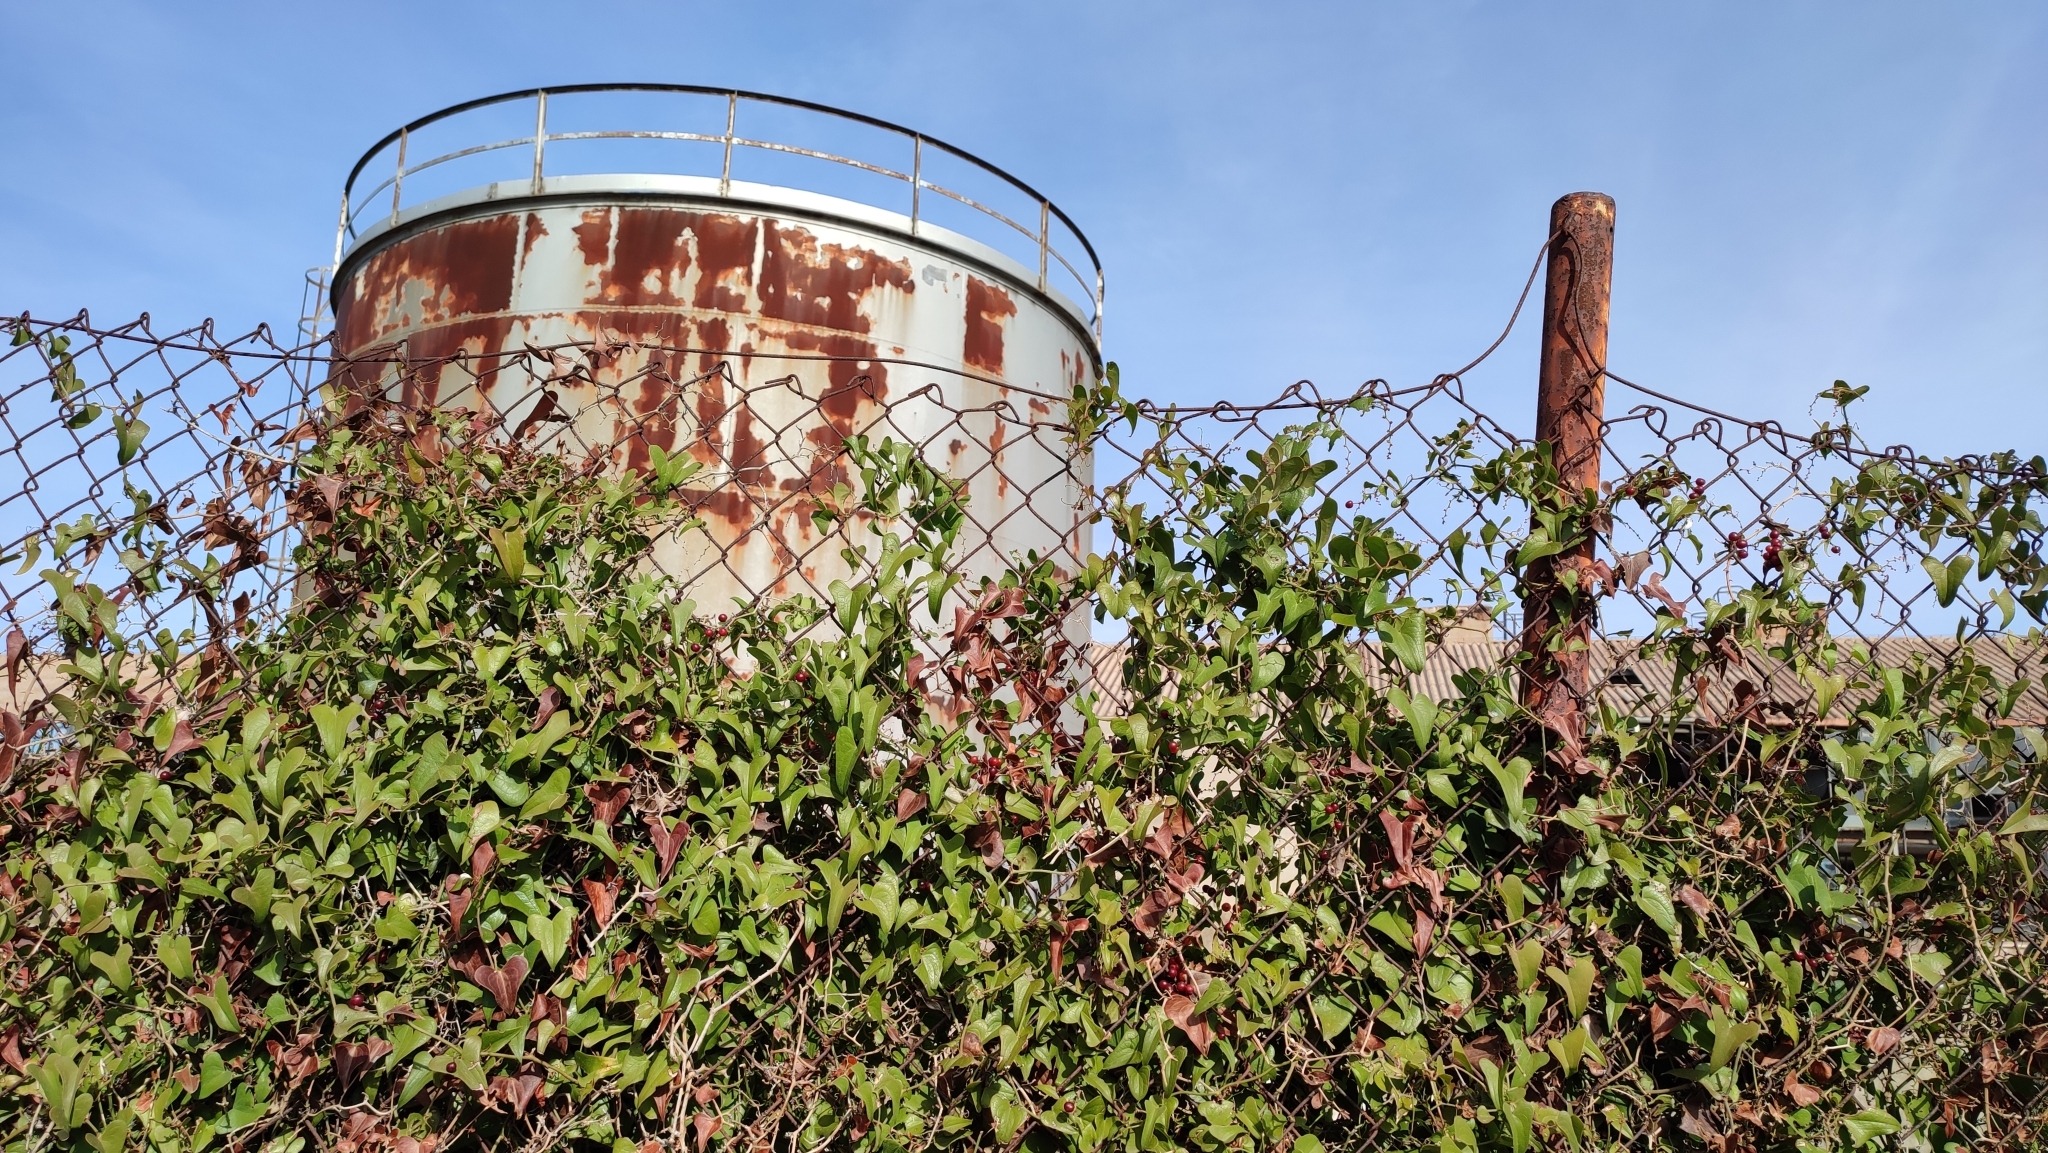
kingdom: Plantae
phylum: Tracheophyta
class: Liliopsida
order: Liliales
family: Smilacaceae
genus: Smilax
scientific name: Smilax aspera
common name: Common smilax
